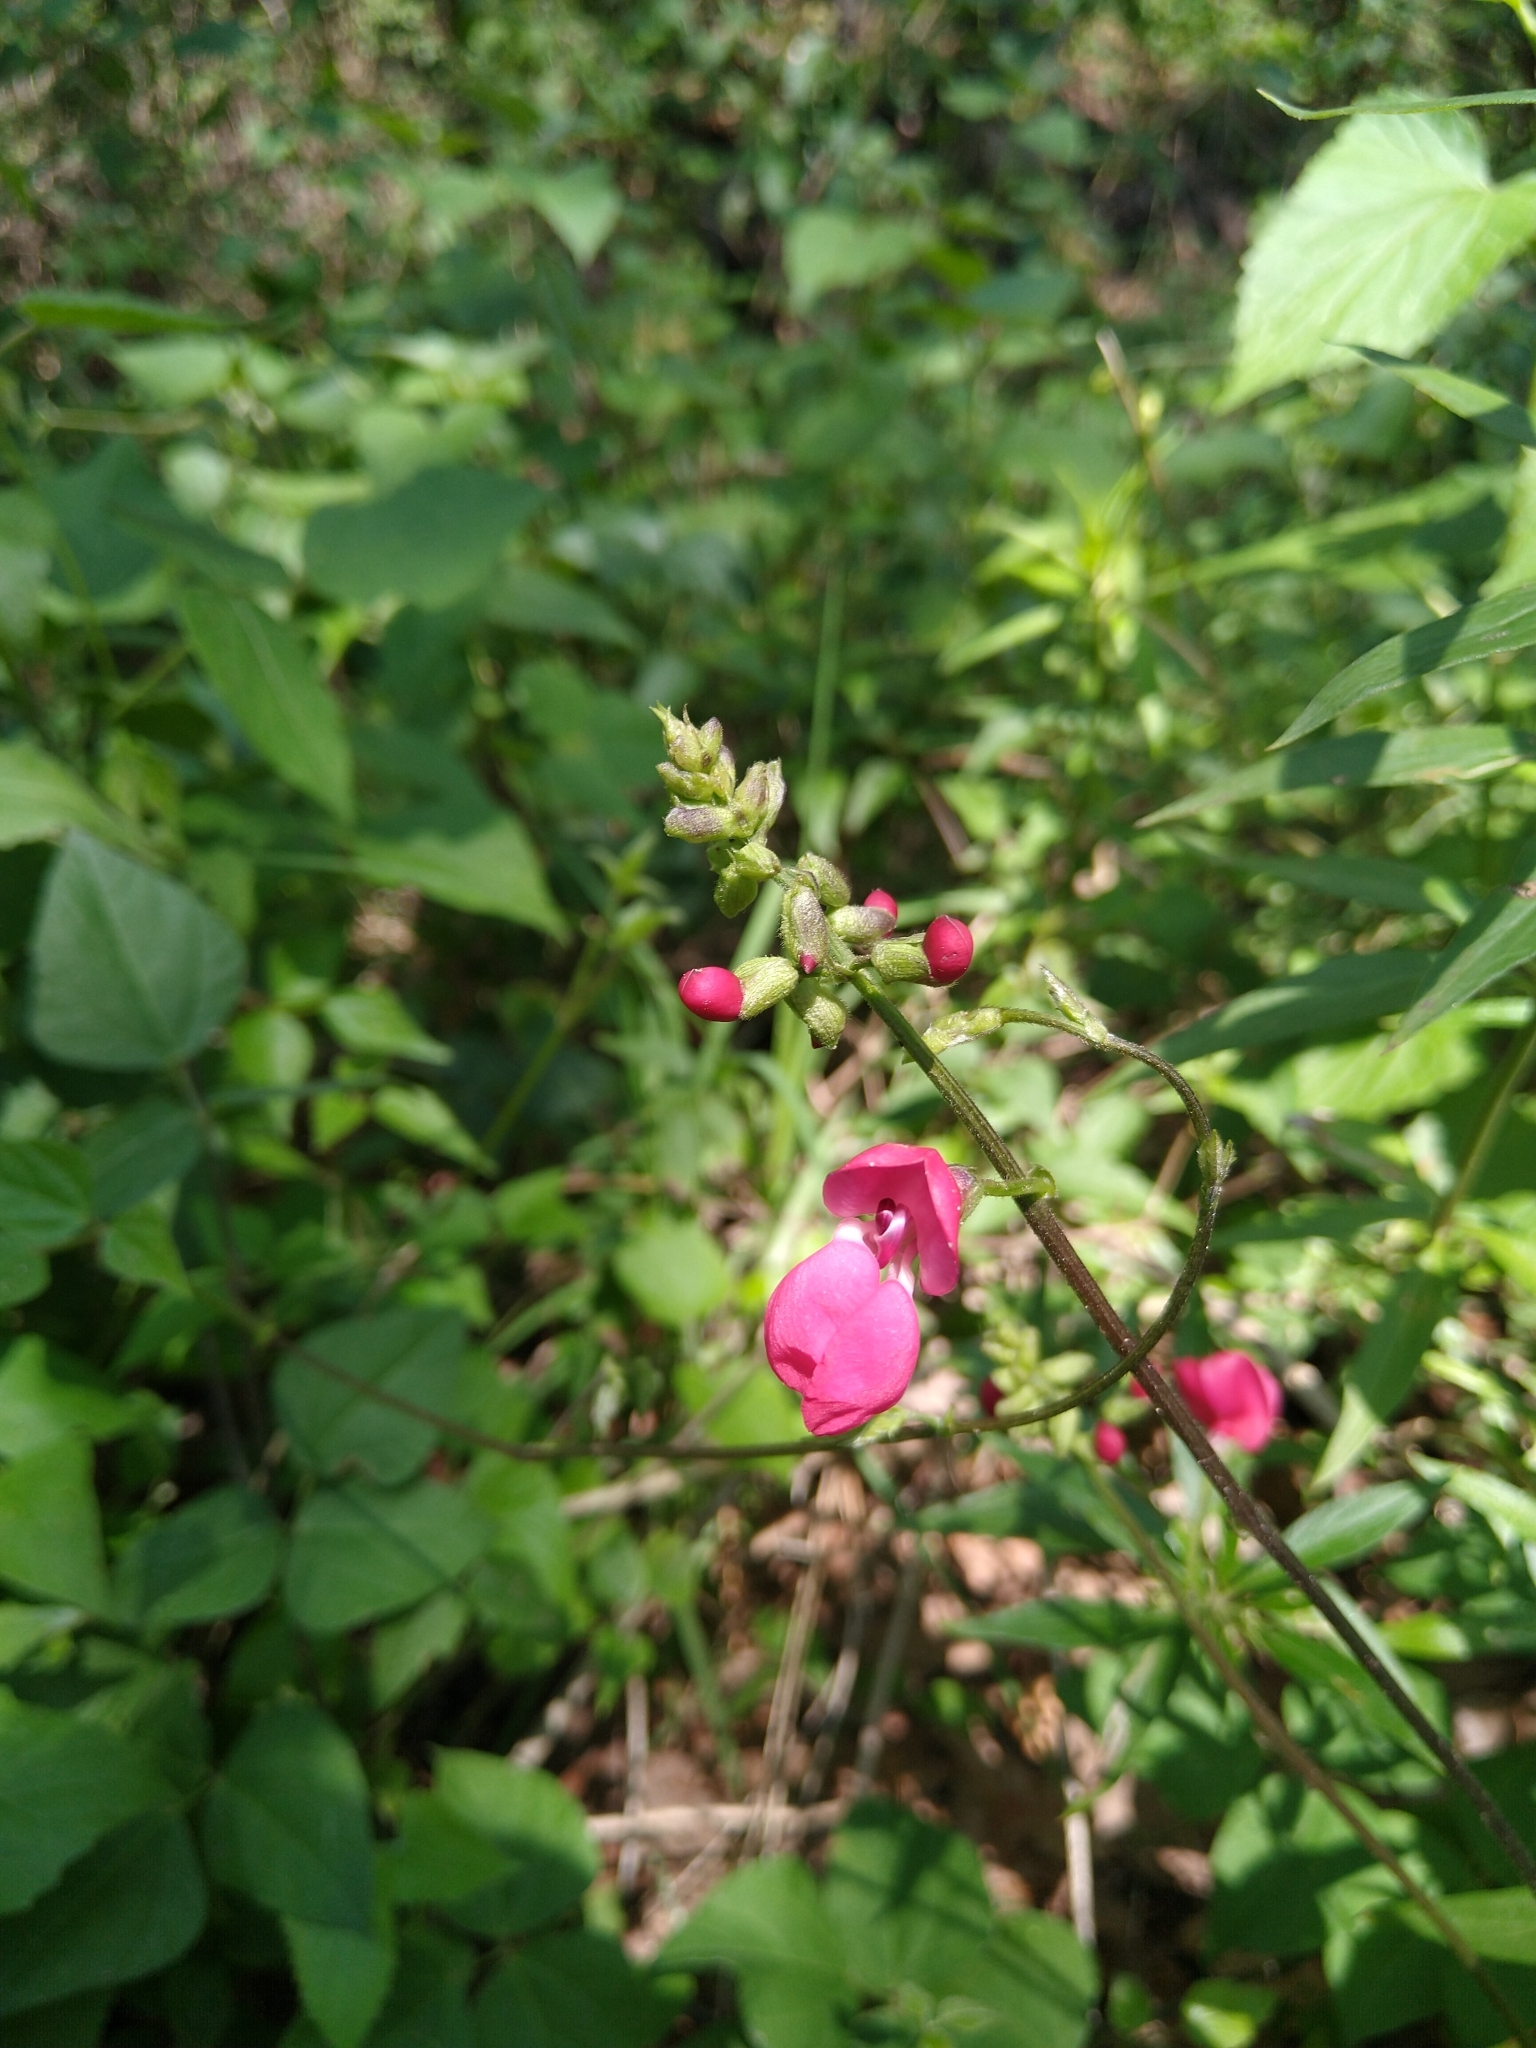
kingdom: Plantae
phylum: Tracheophyta
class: Magnoliopsida
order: Fabales
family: Fabaceae
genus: Phaseolus
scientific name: Phaseolus coccineus
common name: Runner bean
